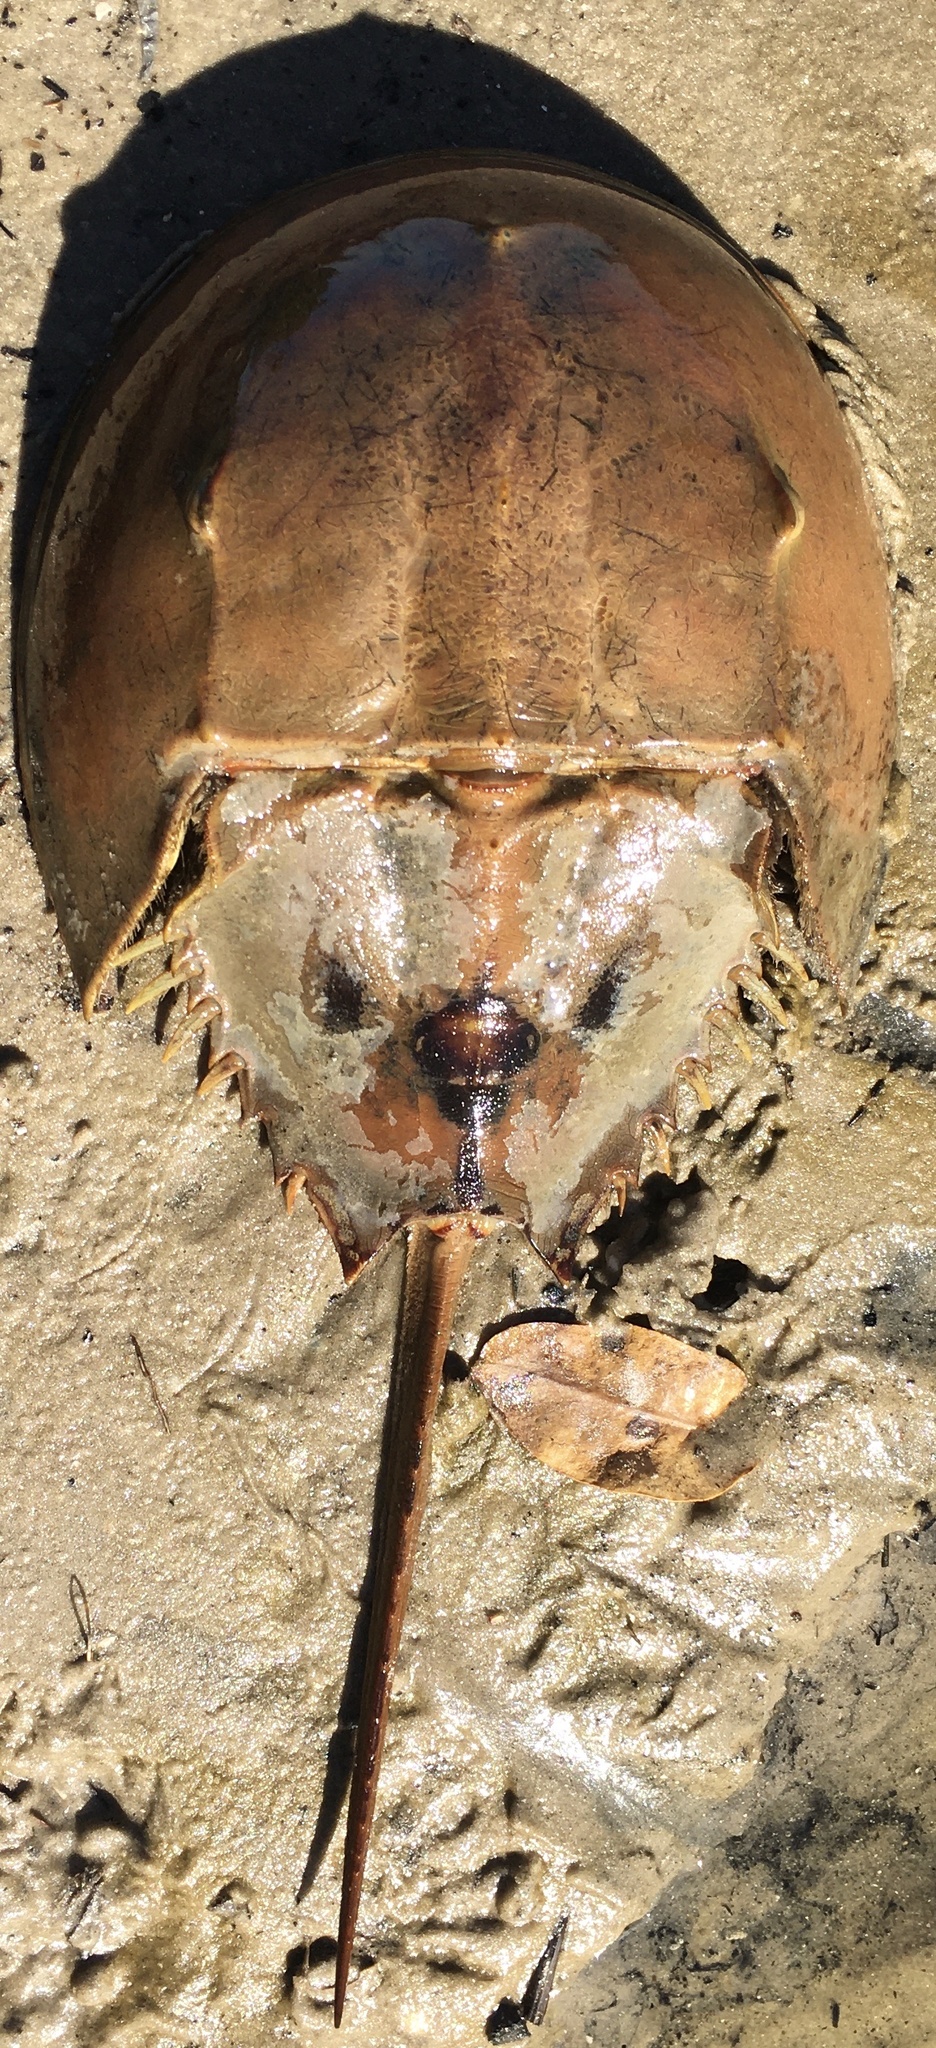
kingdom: Animalia
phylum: Arthropoda
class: Merostomata
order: Xiphosurida
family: Limulidae
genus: Limulus
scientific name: Limulus polyphemus
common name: Horseshoe crab
